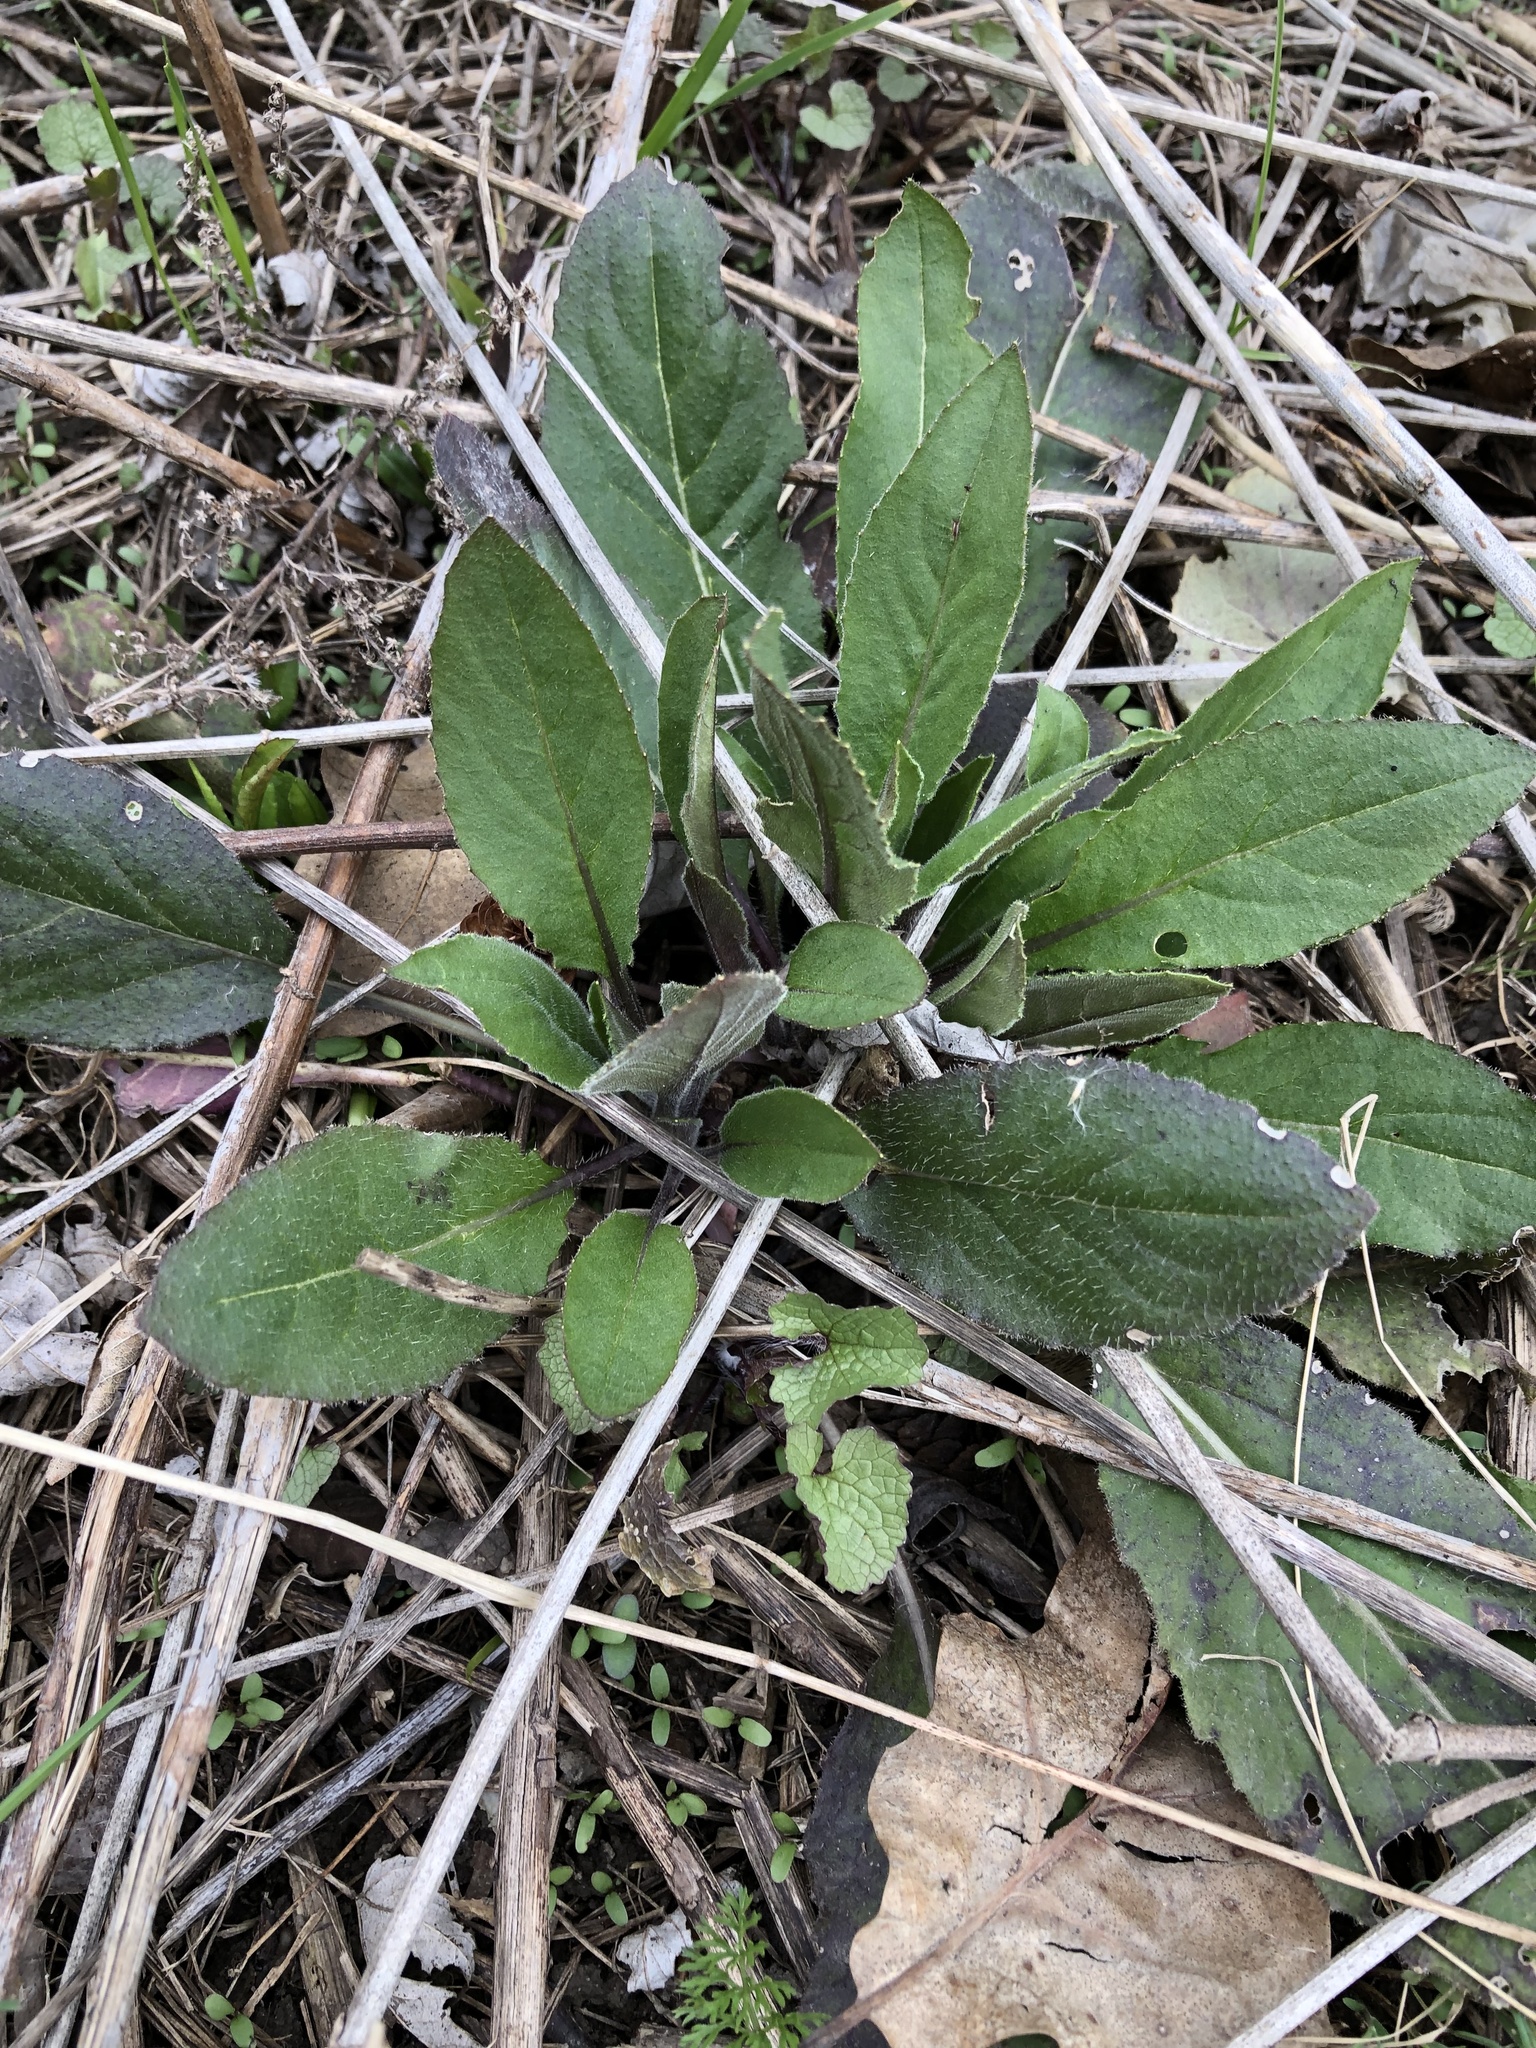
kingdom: Plantae
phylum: Tracheophyta
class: Magnoliopsida
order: Brassicales
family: Brassicaceae
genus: Hesperis
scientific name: Hesperis matronalis
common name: Dame's-violet
